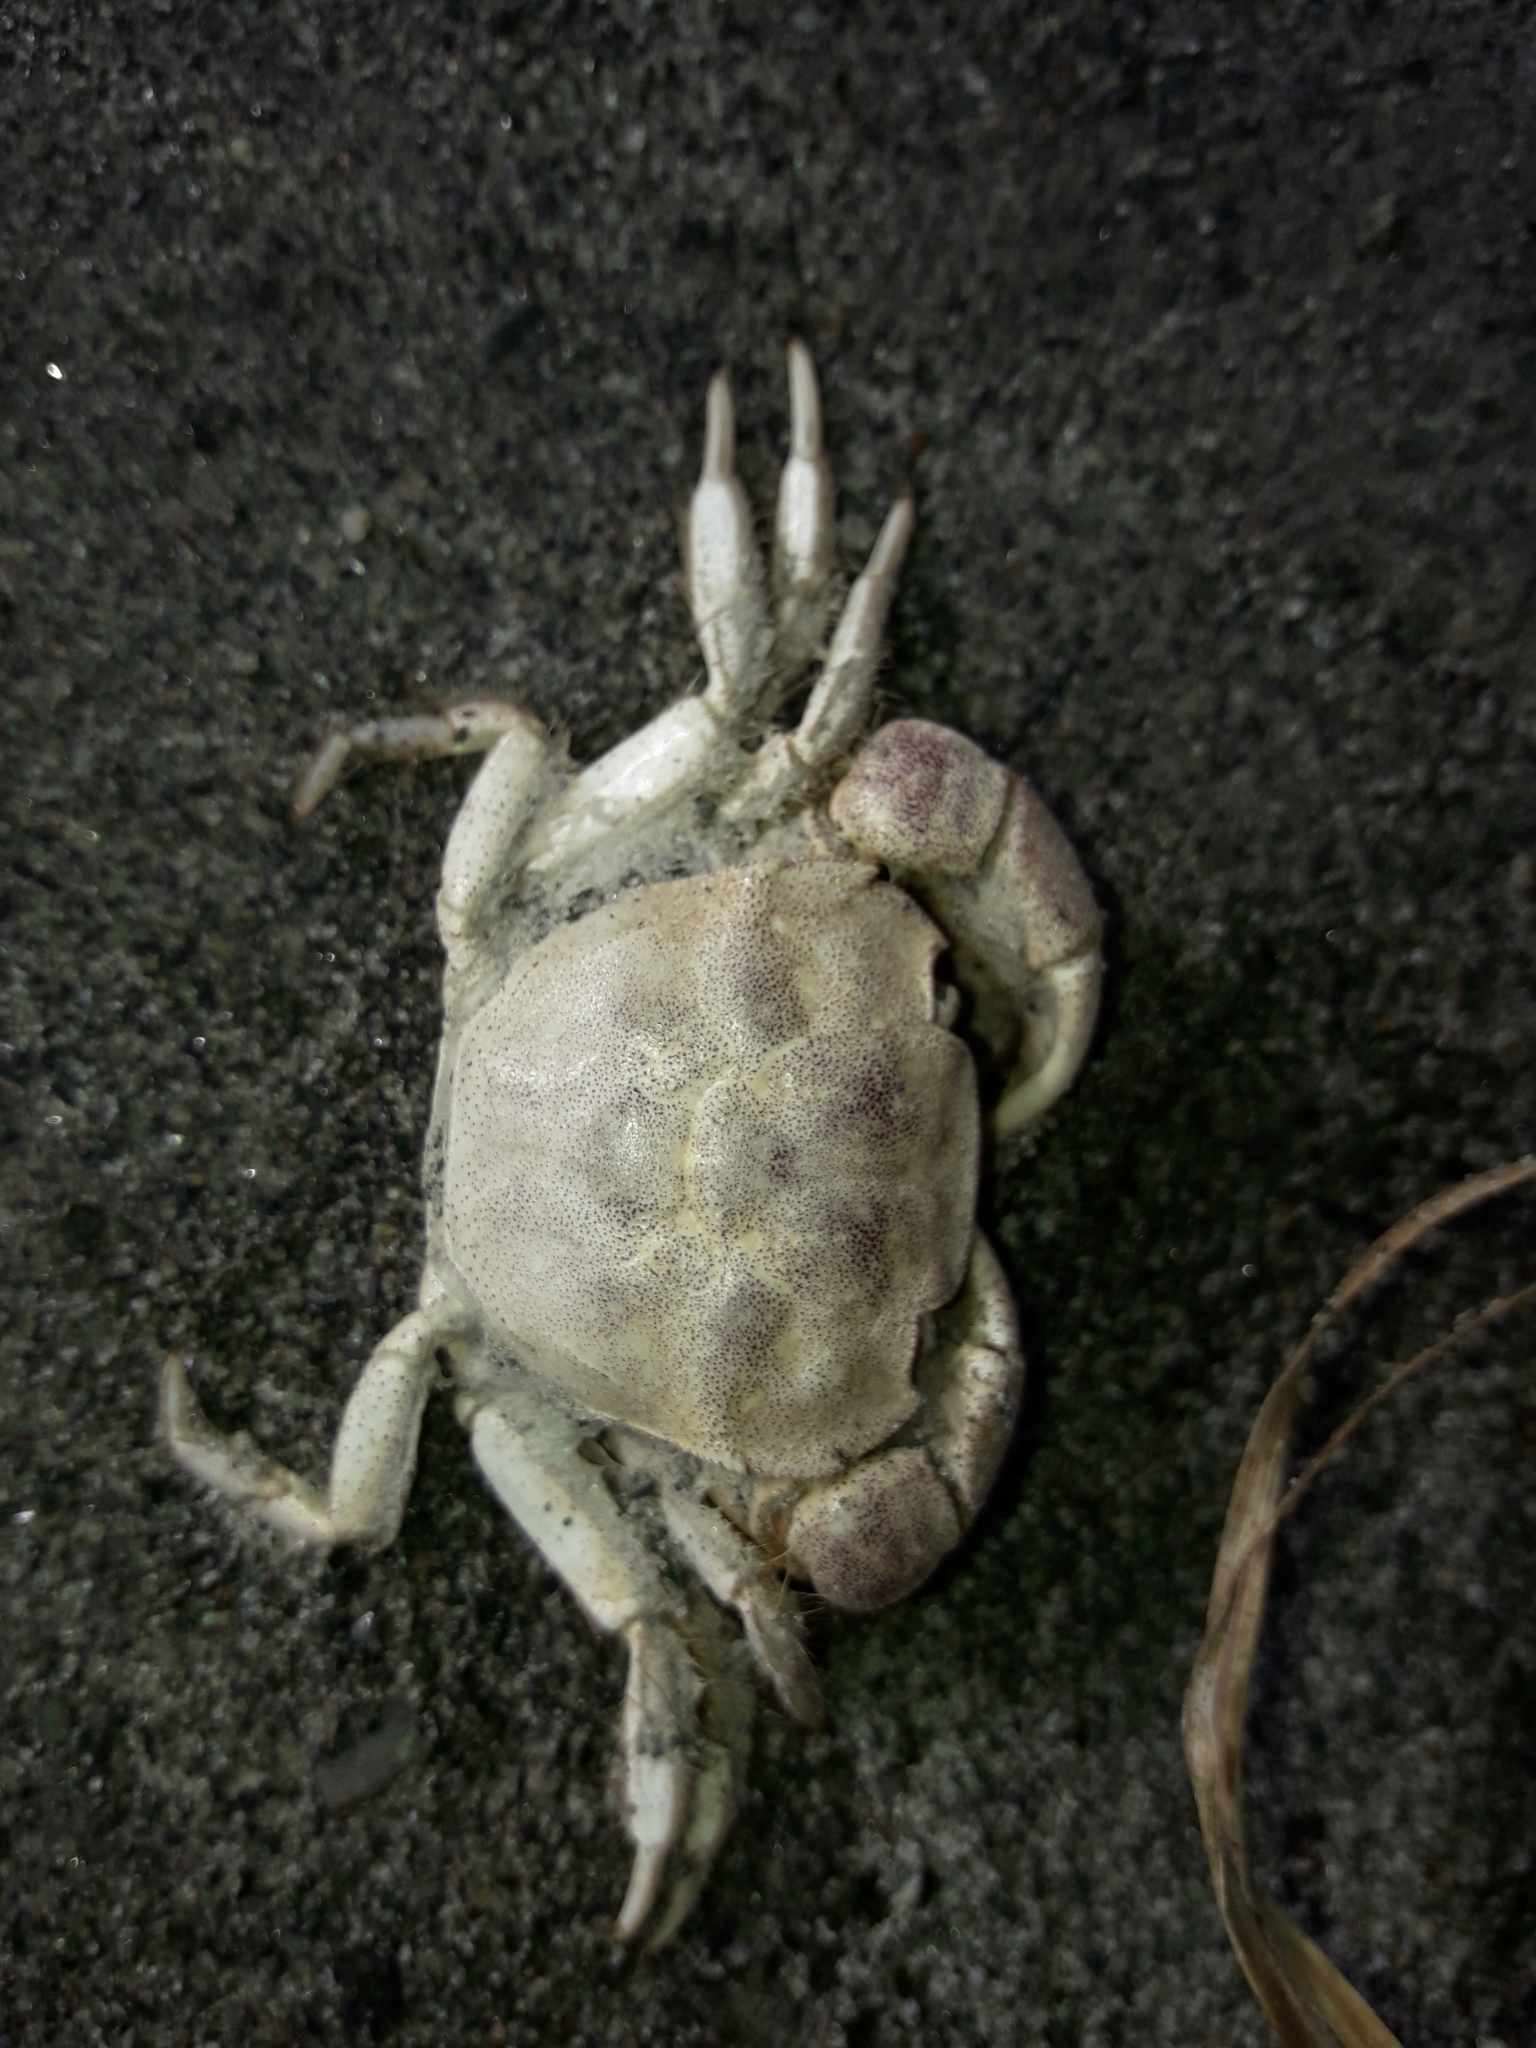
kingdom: Animalia
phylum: Arthropoda
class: Malacostraca
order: Decapoda
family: Varunidae
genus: Hemigrapsus
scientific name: Hemigrapsus crenulatus
